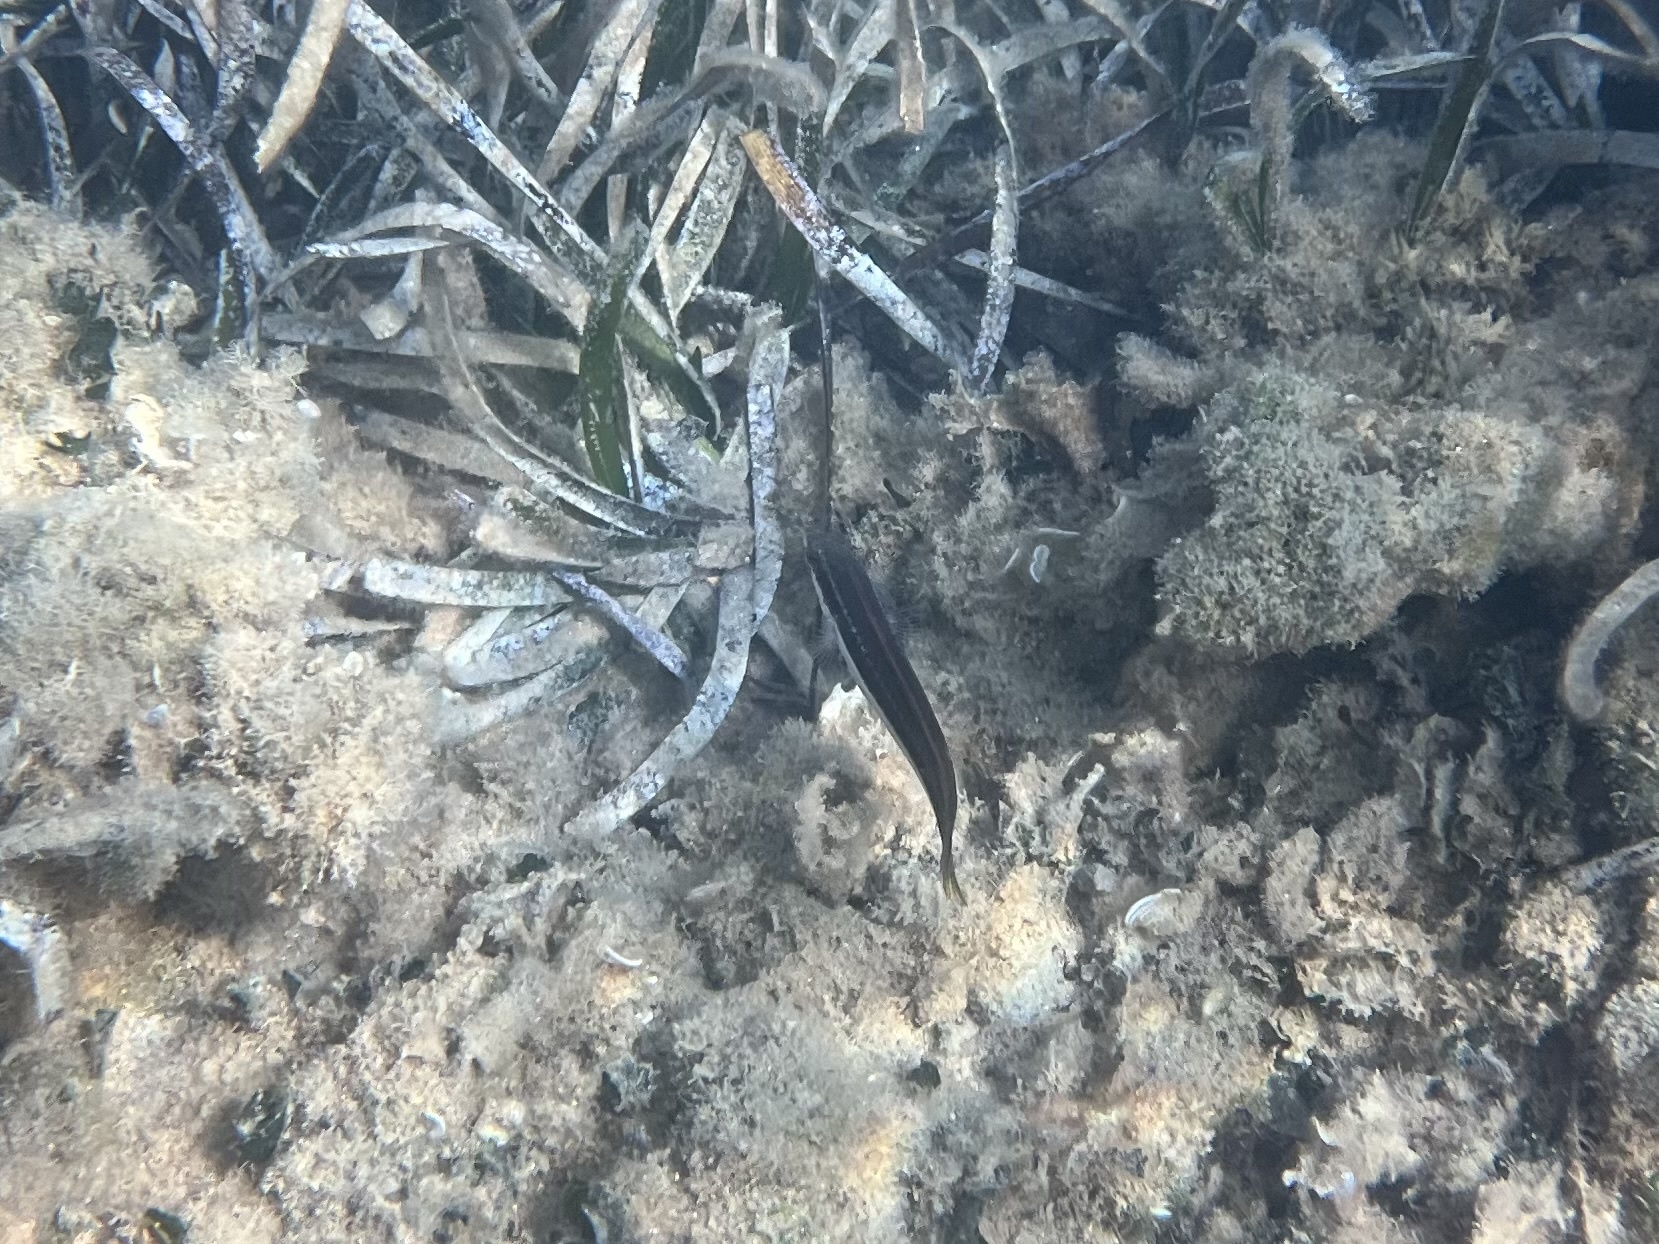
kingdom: Animalia
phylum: Chordata
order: Perciformes
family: Labridae
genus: Coris
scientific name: Coris julis
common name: Rainbow wrasse
